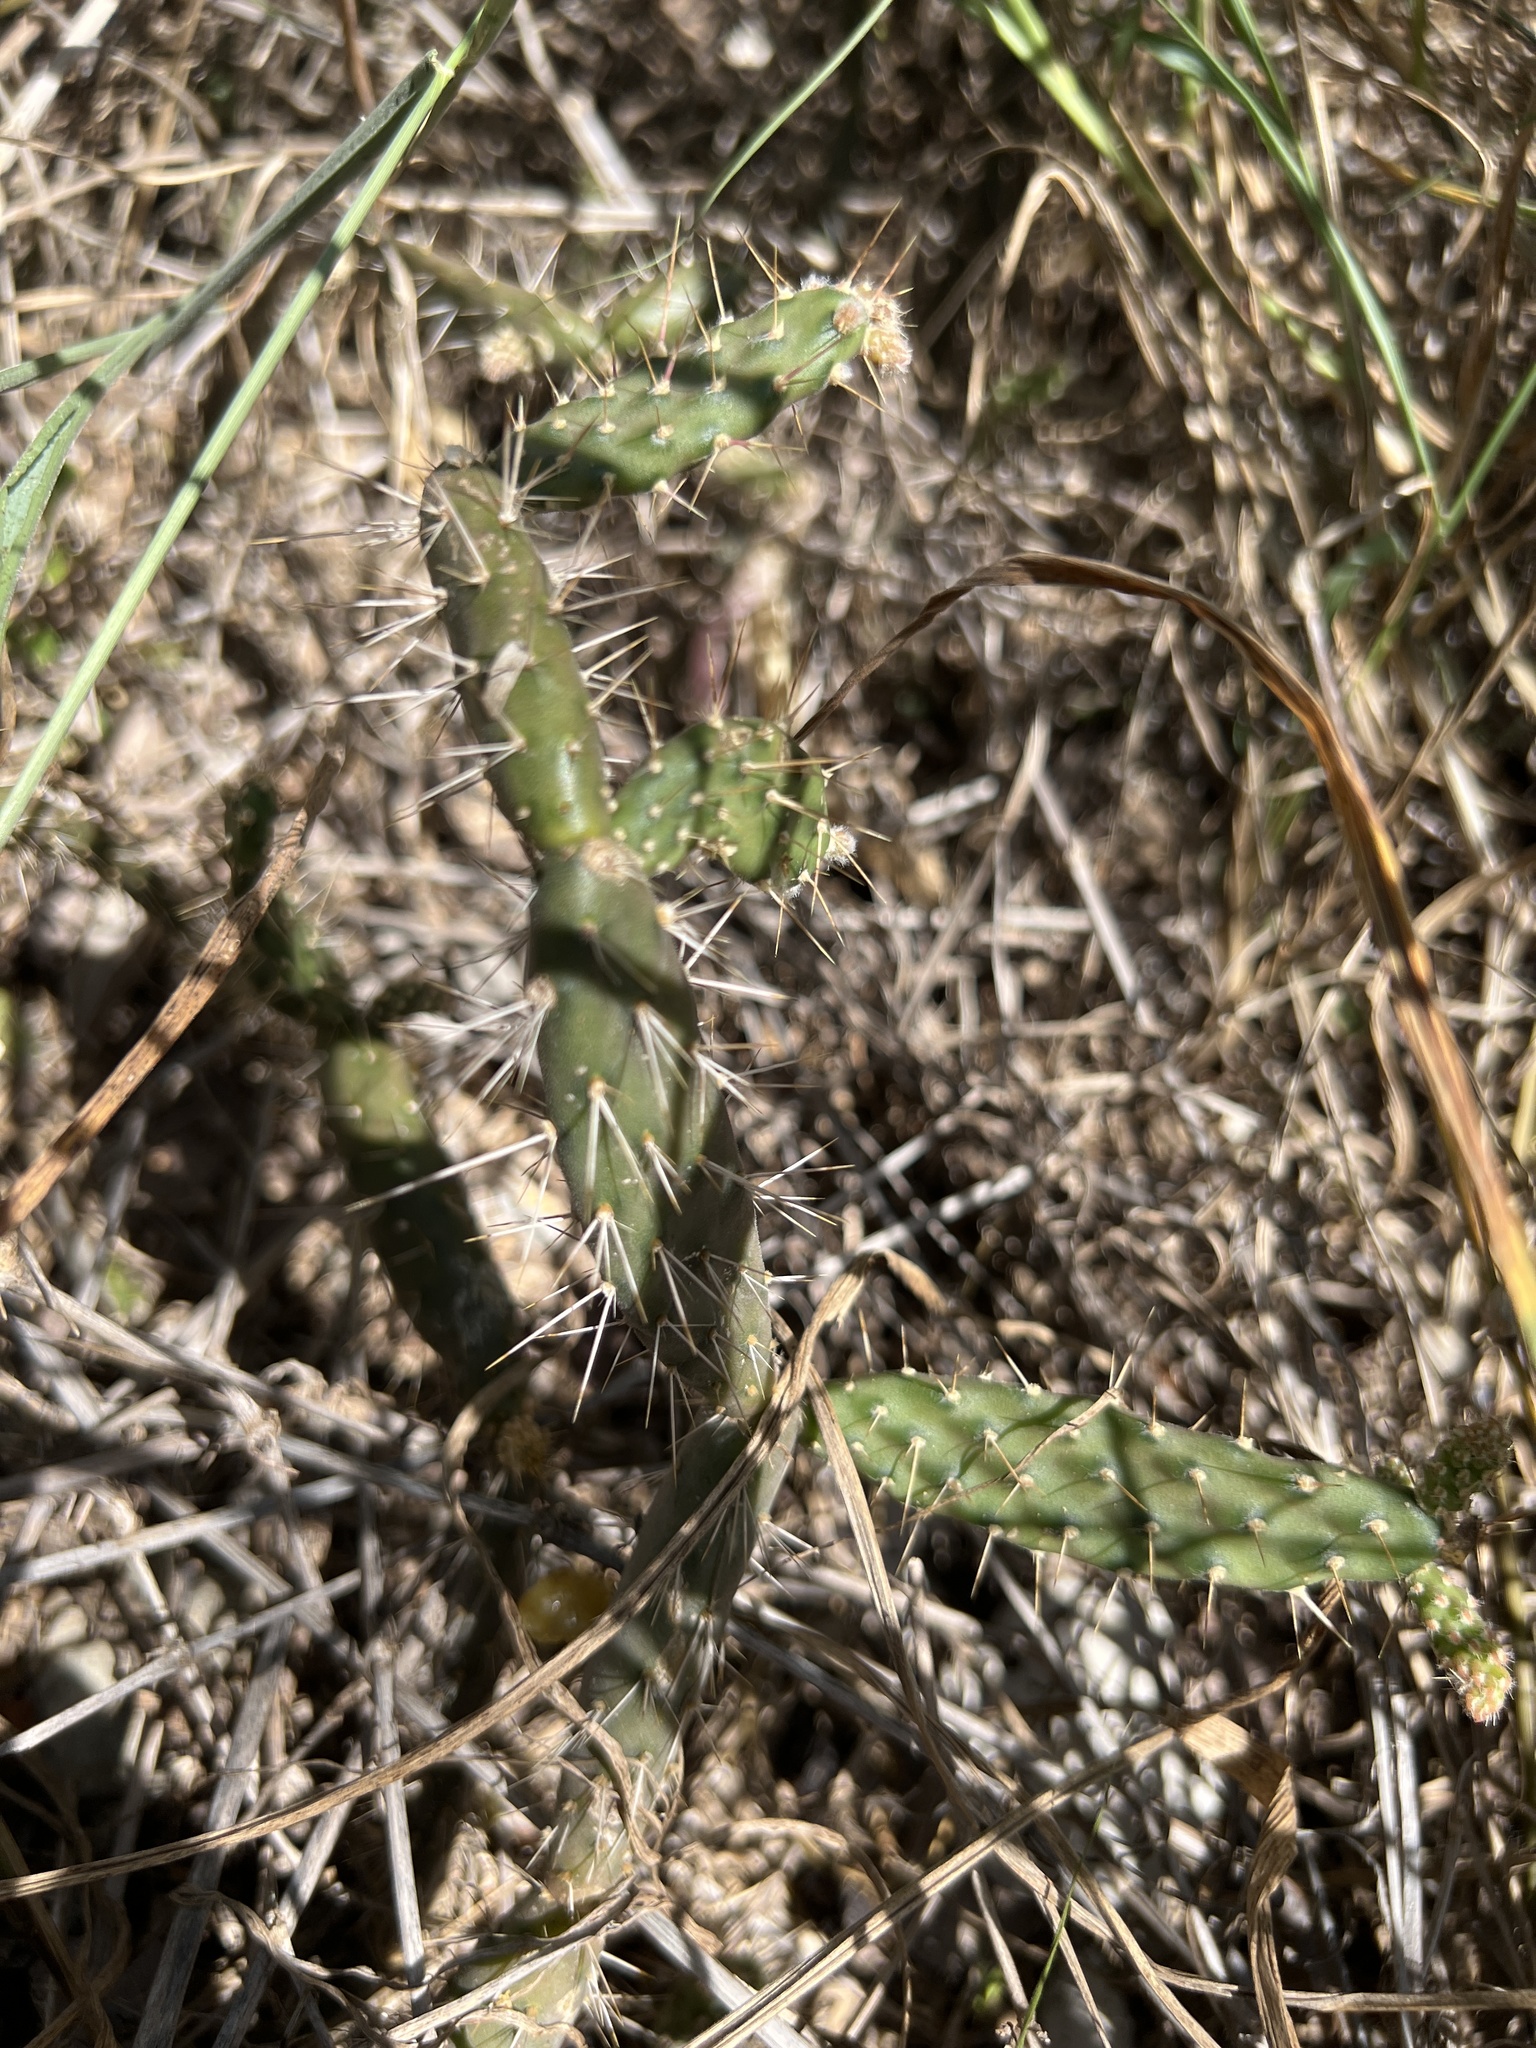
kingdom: Plantae
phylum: Tracheophyta
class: Magnoliopsida
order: Caryophyllales
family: Cactaceae
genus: Opuntia
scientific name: Opuntia repens
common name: Roving pricklypear
